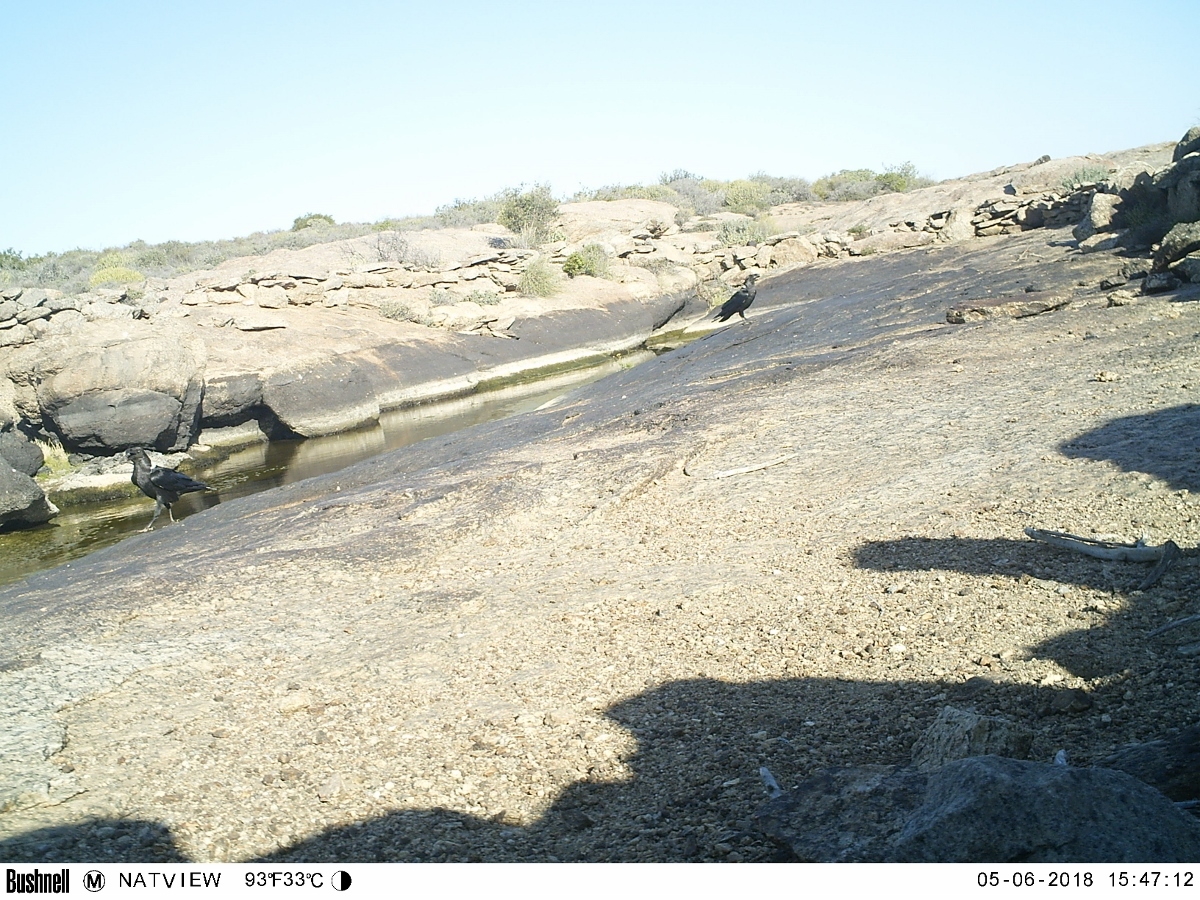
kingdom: Animalia
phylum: Chordata
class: Aves
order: Passeriformes
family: Corvidae
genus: Corvus
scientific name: Corvus albicollis
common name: White-necked raven
